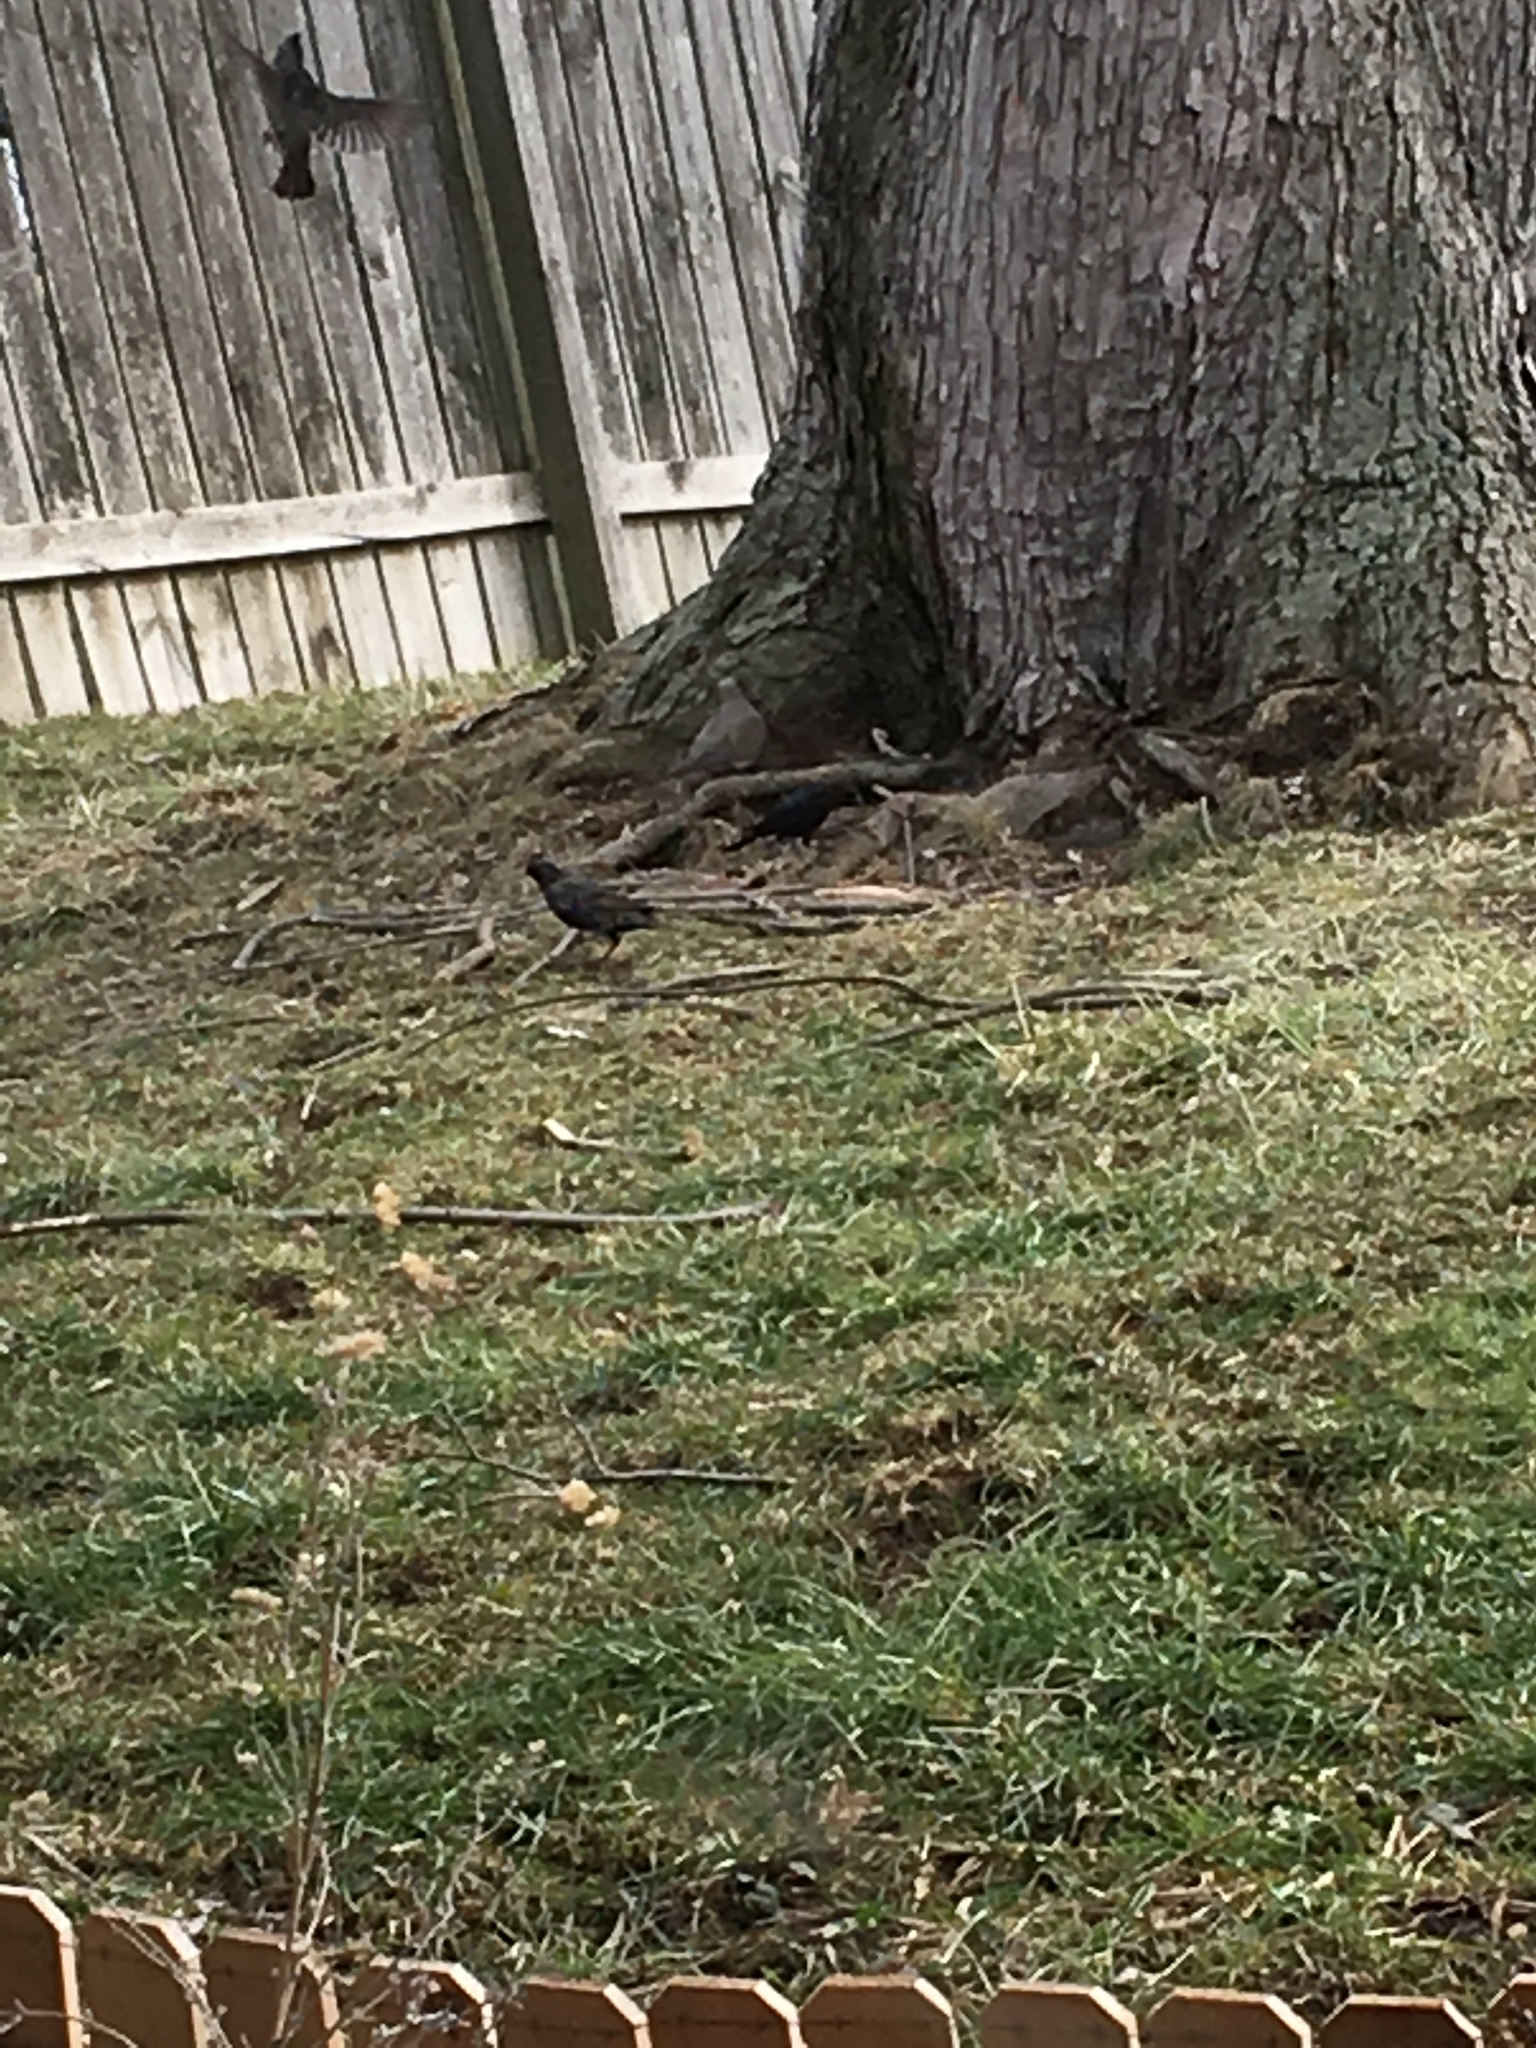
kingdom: Animalia
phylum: Chordata
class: Aves
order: Passeriformes
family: Icteridae
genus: Molothrus
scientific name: Molothrus ater
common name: Brown-headed cowbird
